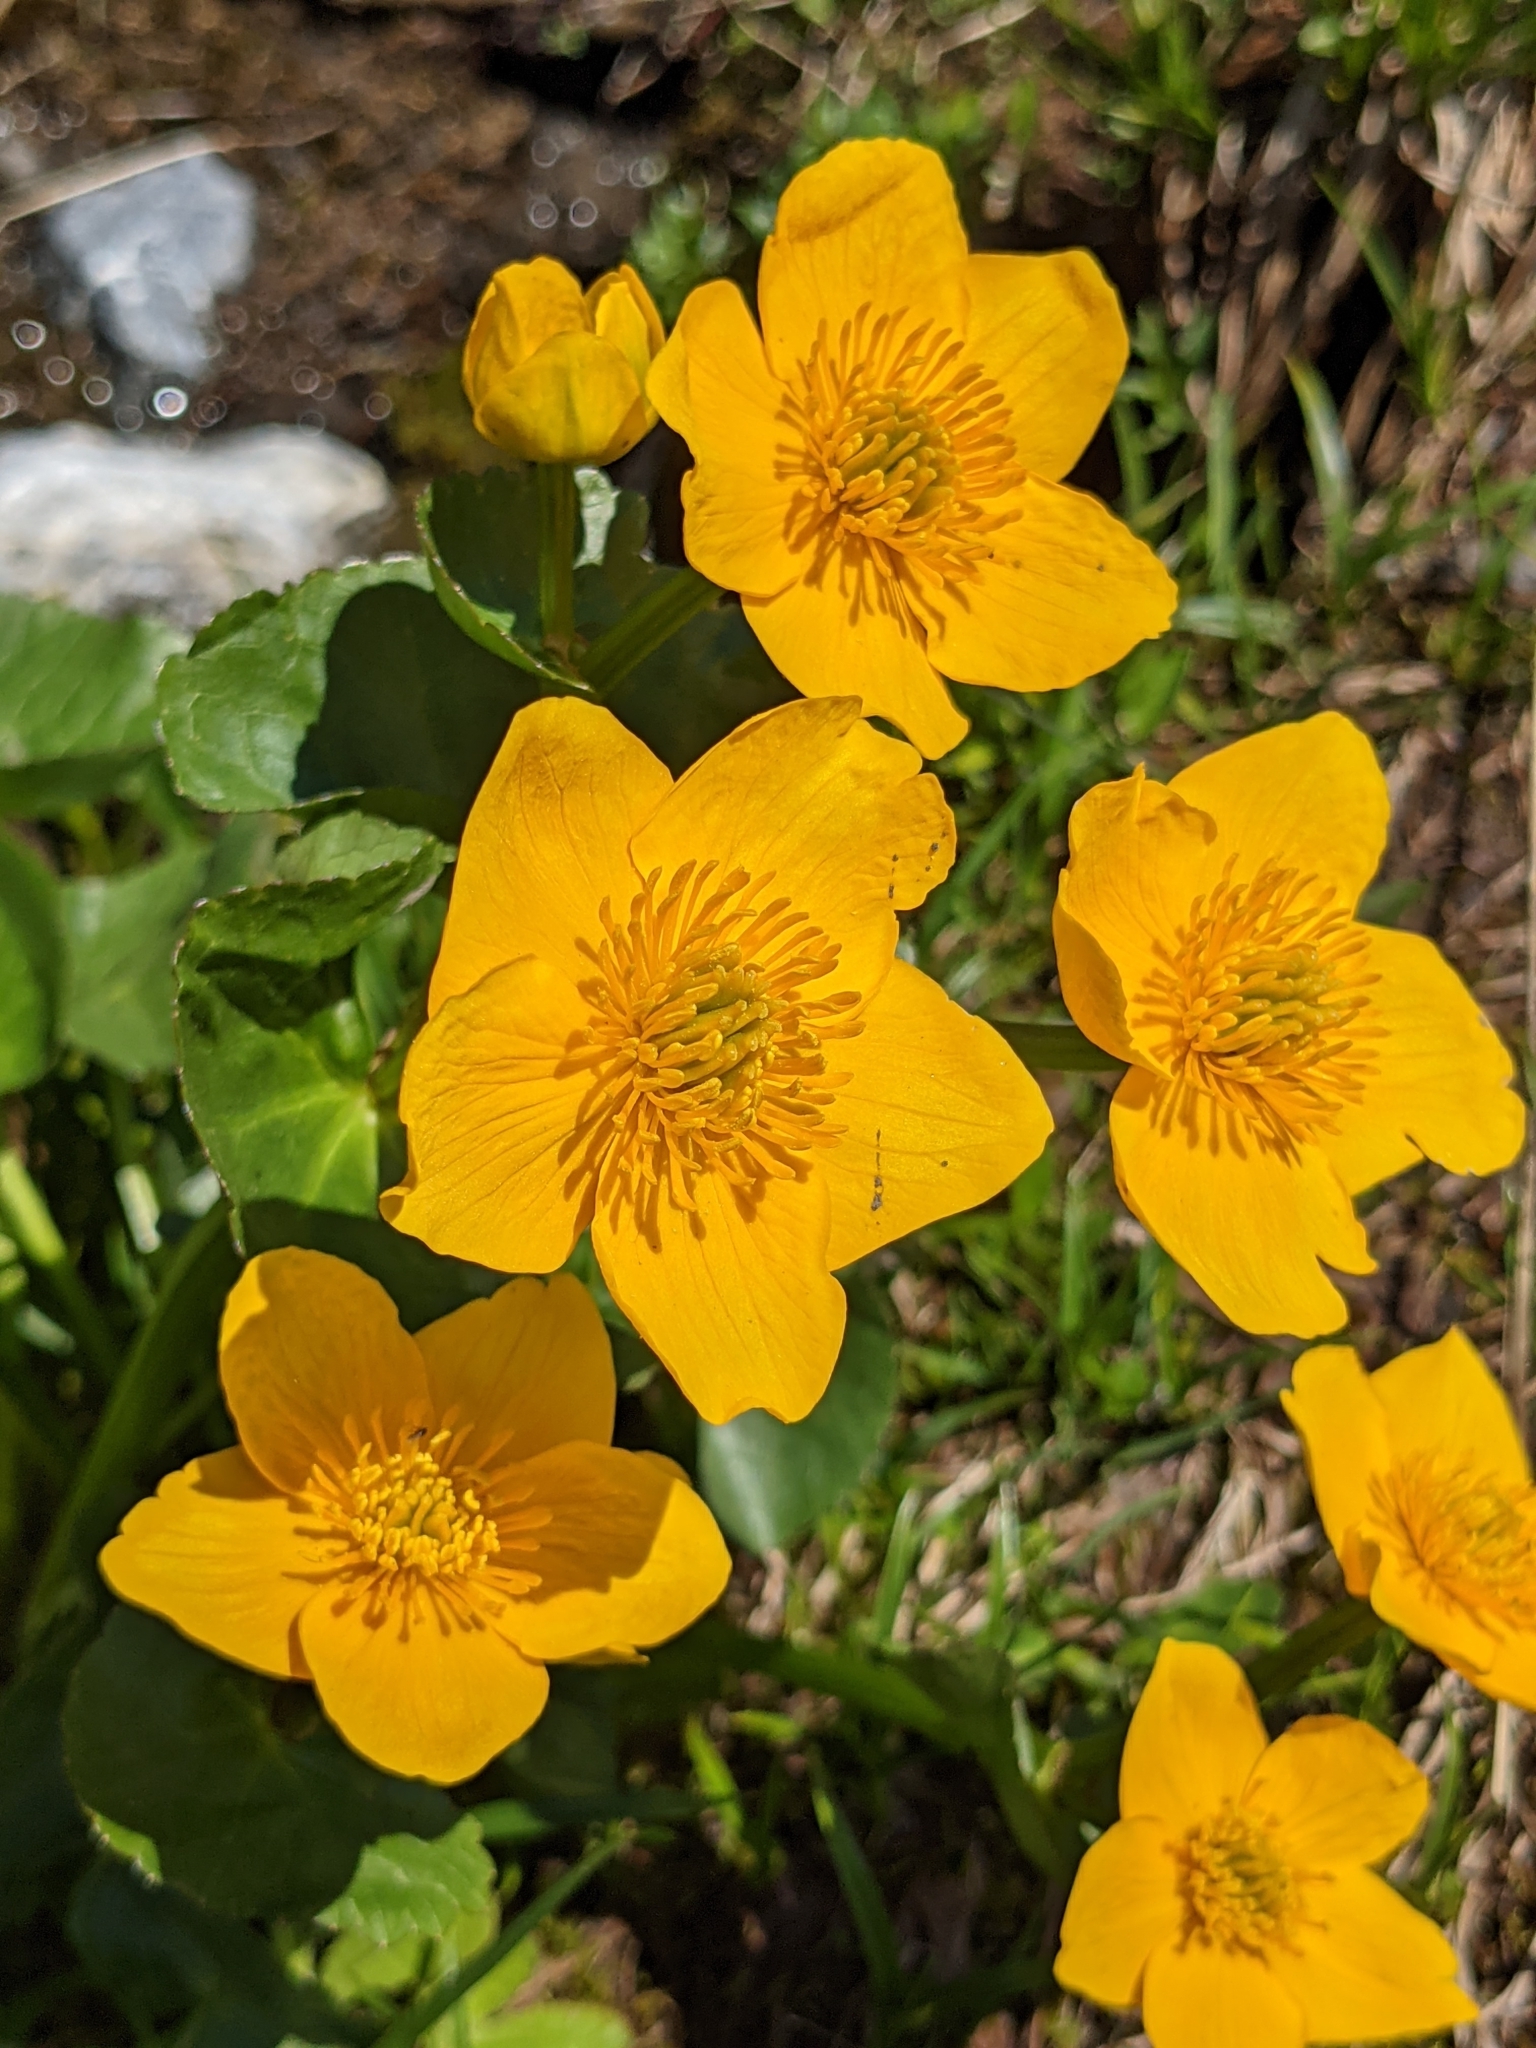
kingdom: Plantae
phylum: Tracheophyta
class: Magnoliopsida
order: Ranunculales
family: Ranunculaceae
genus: Caltha
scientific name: Caltha palustris
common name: Marsh marigold
